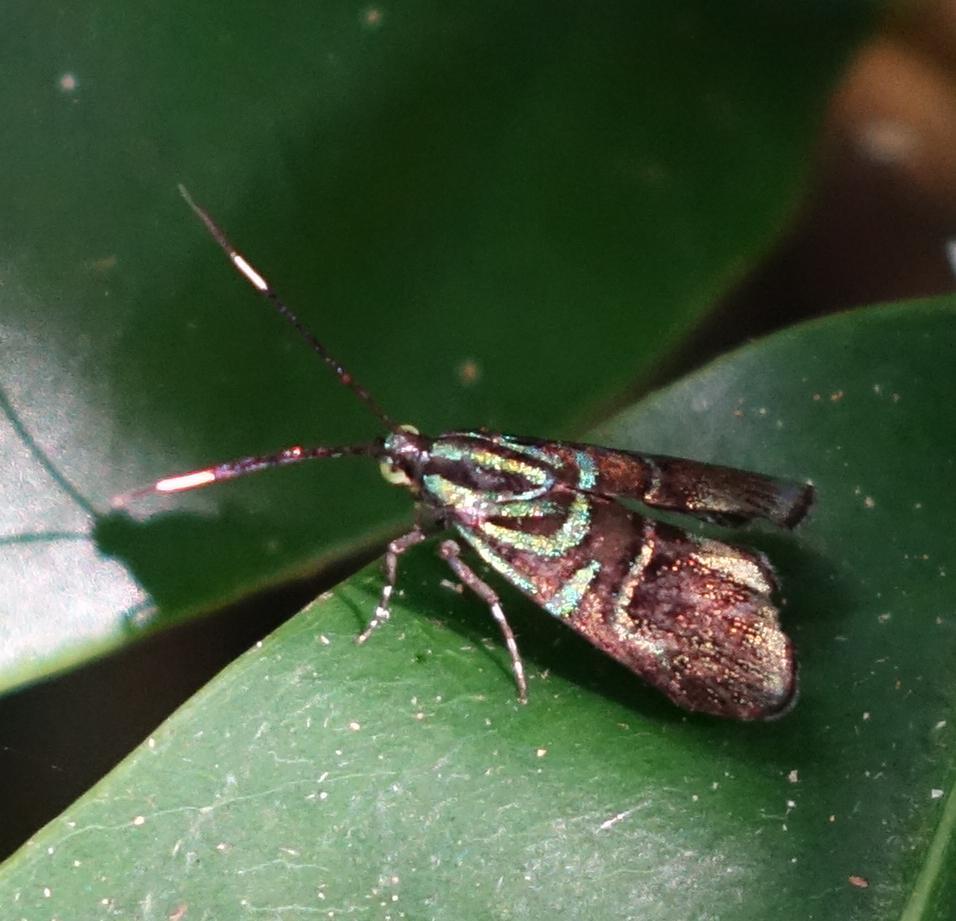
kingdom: Animalia
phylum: Arthropoda
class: Insecta
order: Lepidoptera
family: Choreutidae
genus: Saptha
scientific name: Saptha divitiosa
